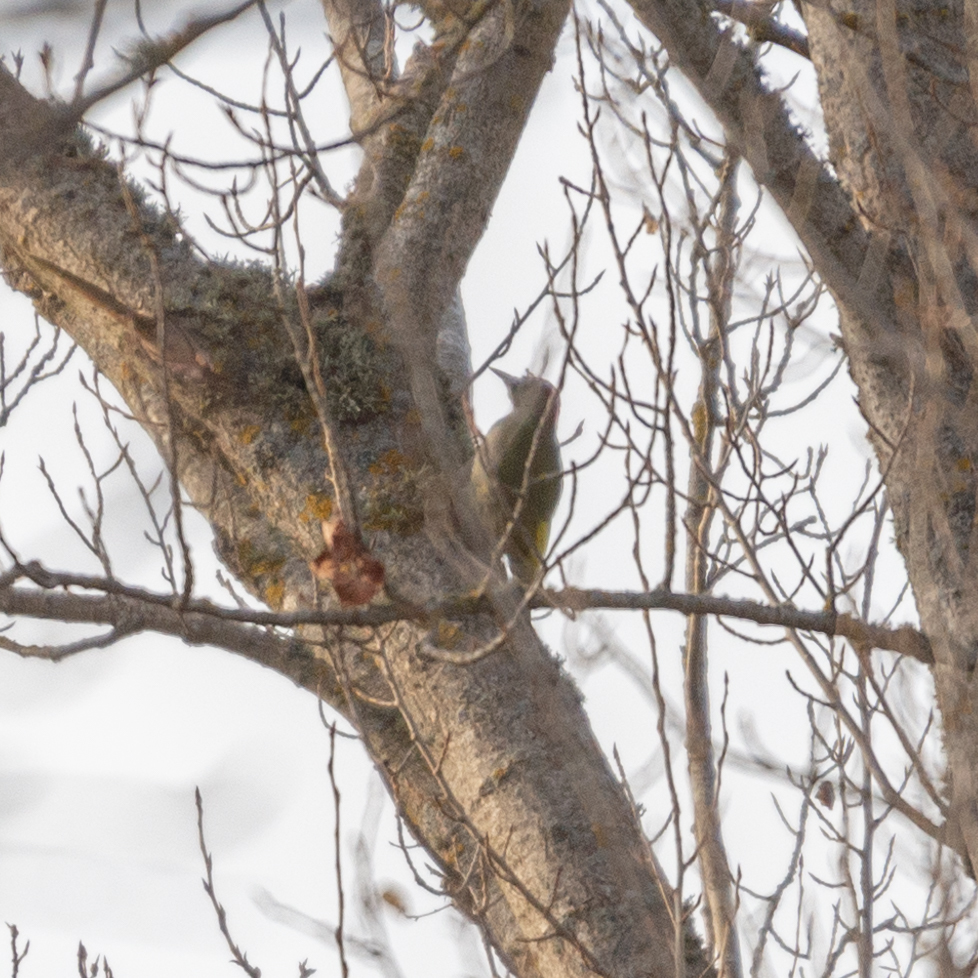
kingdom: Animalia
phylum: Chordata
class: Aves
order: Piciformes
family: Picidae
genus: Picus
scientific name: Picus sharpei
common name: Iberian green woodpecker
